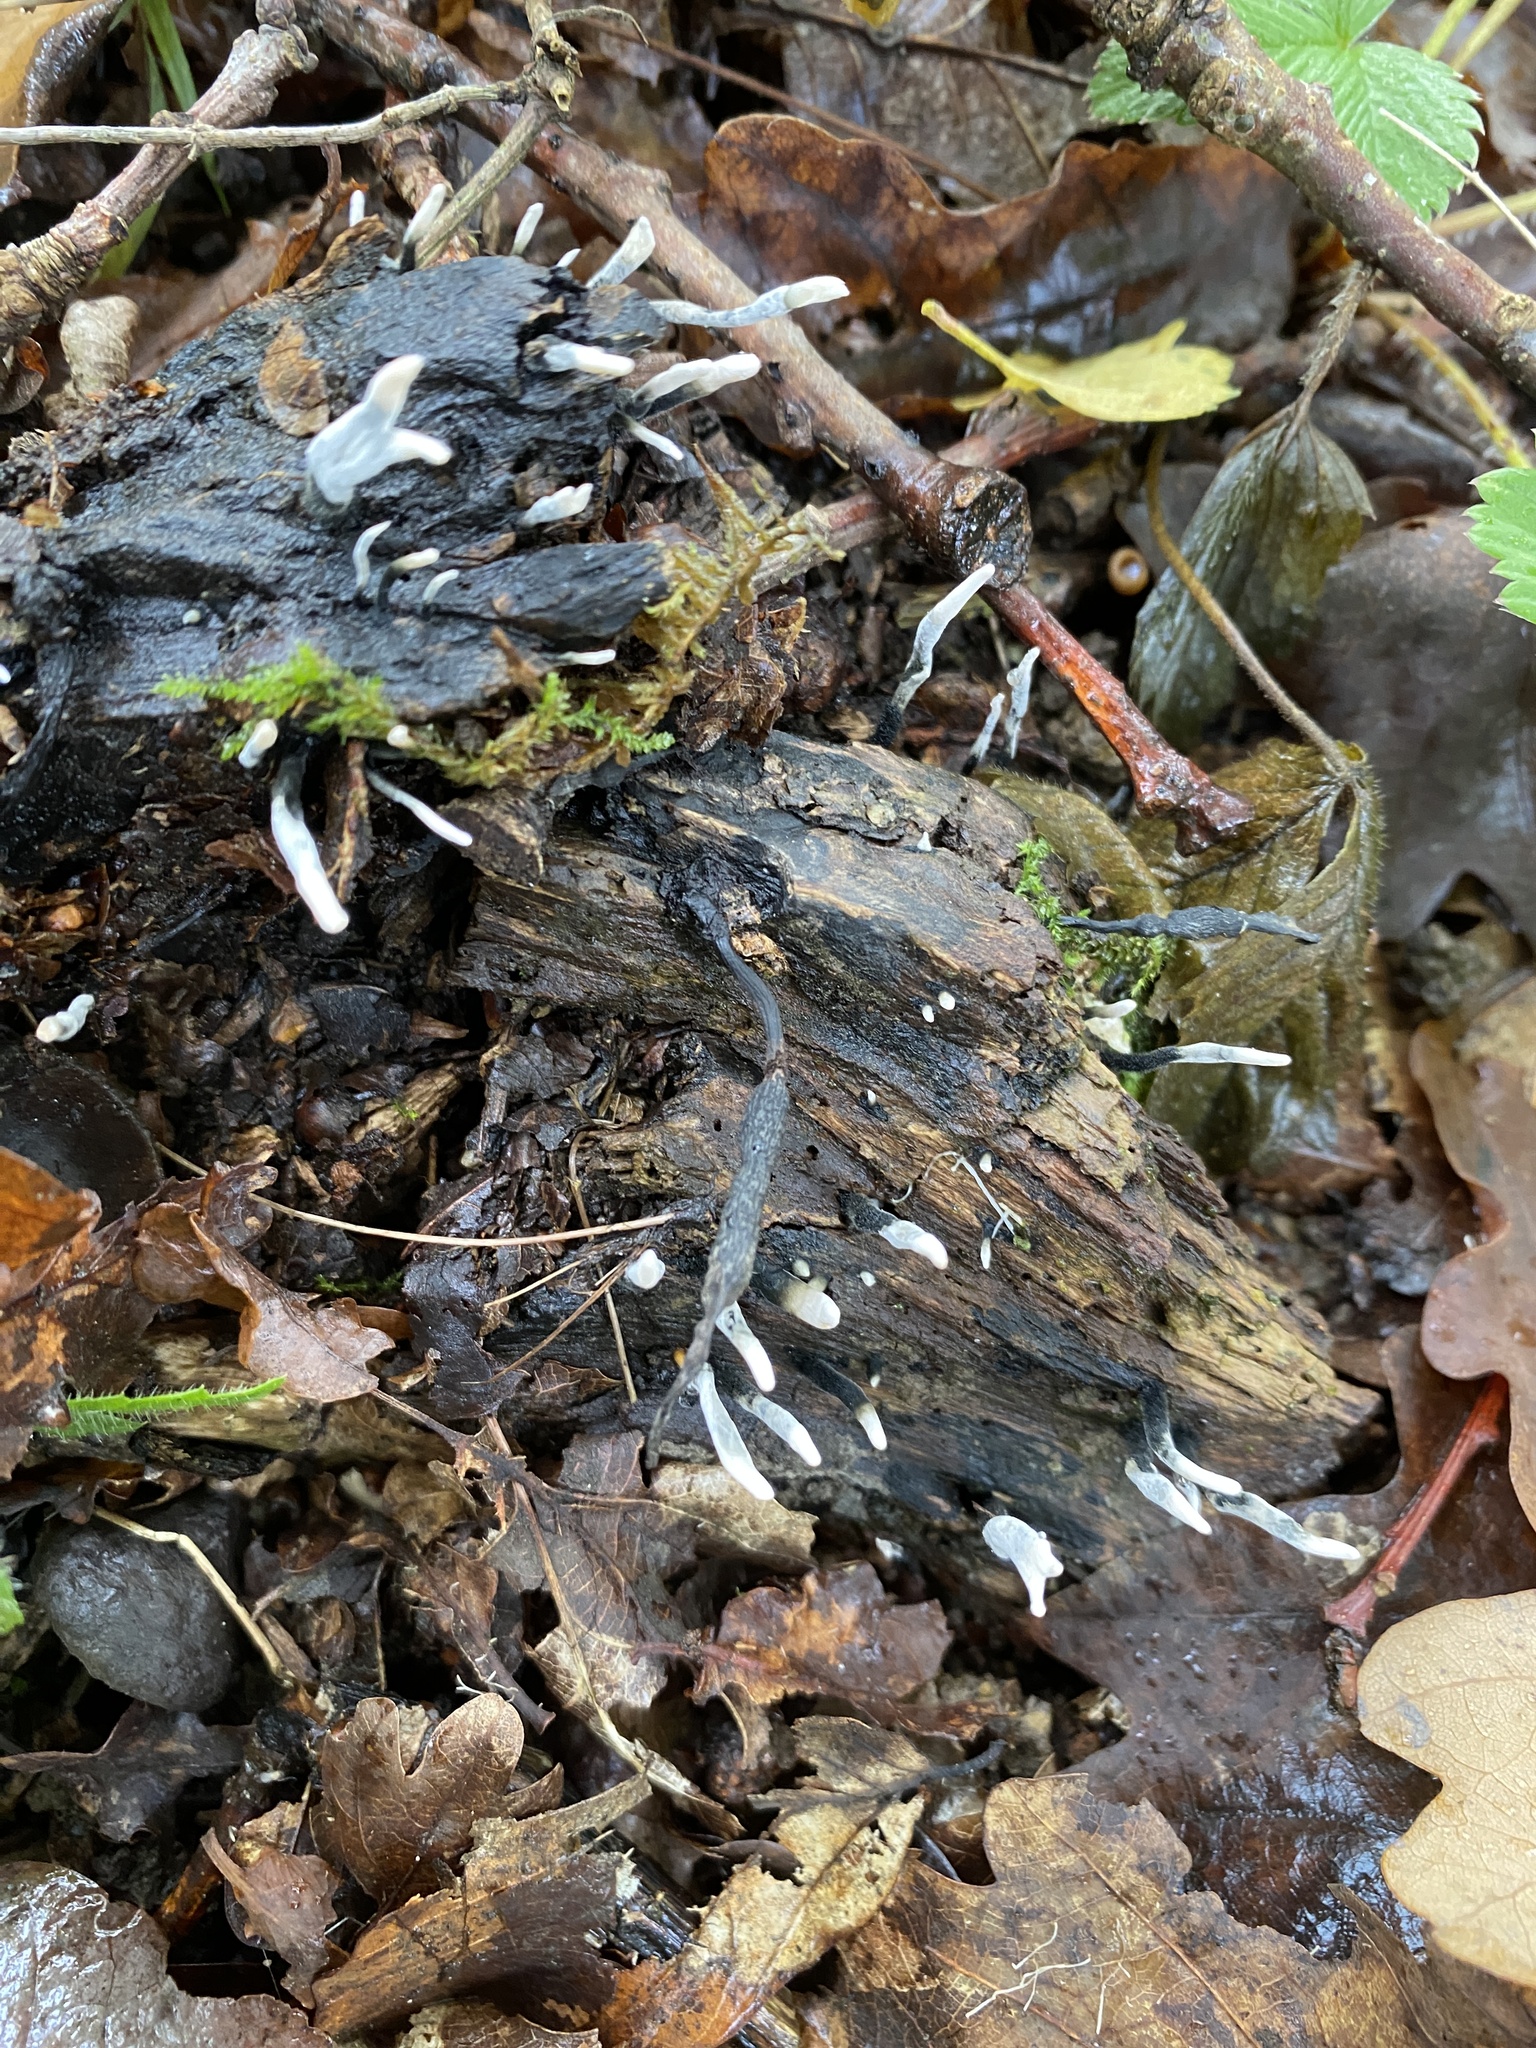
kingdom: Fungi
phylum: Ascomycota
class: Sordariomycetes
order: Xylariales
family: Xylariaceae
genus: Xylaria
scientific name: Xylaria hypoxylon
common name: Candle-snuff fungus
